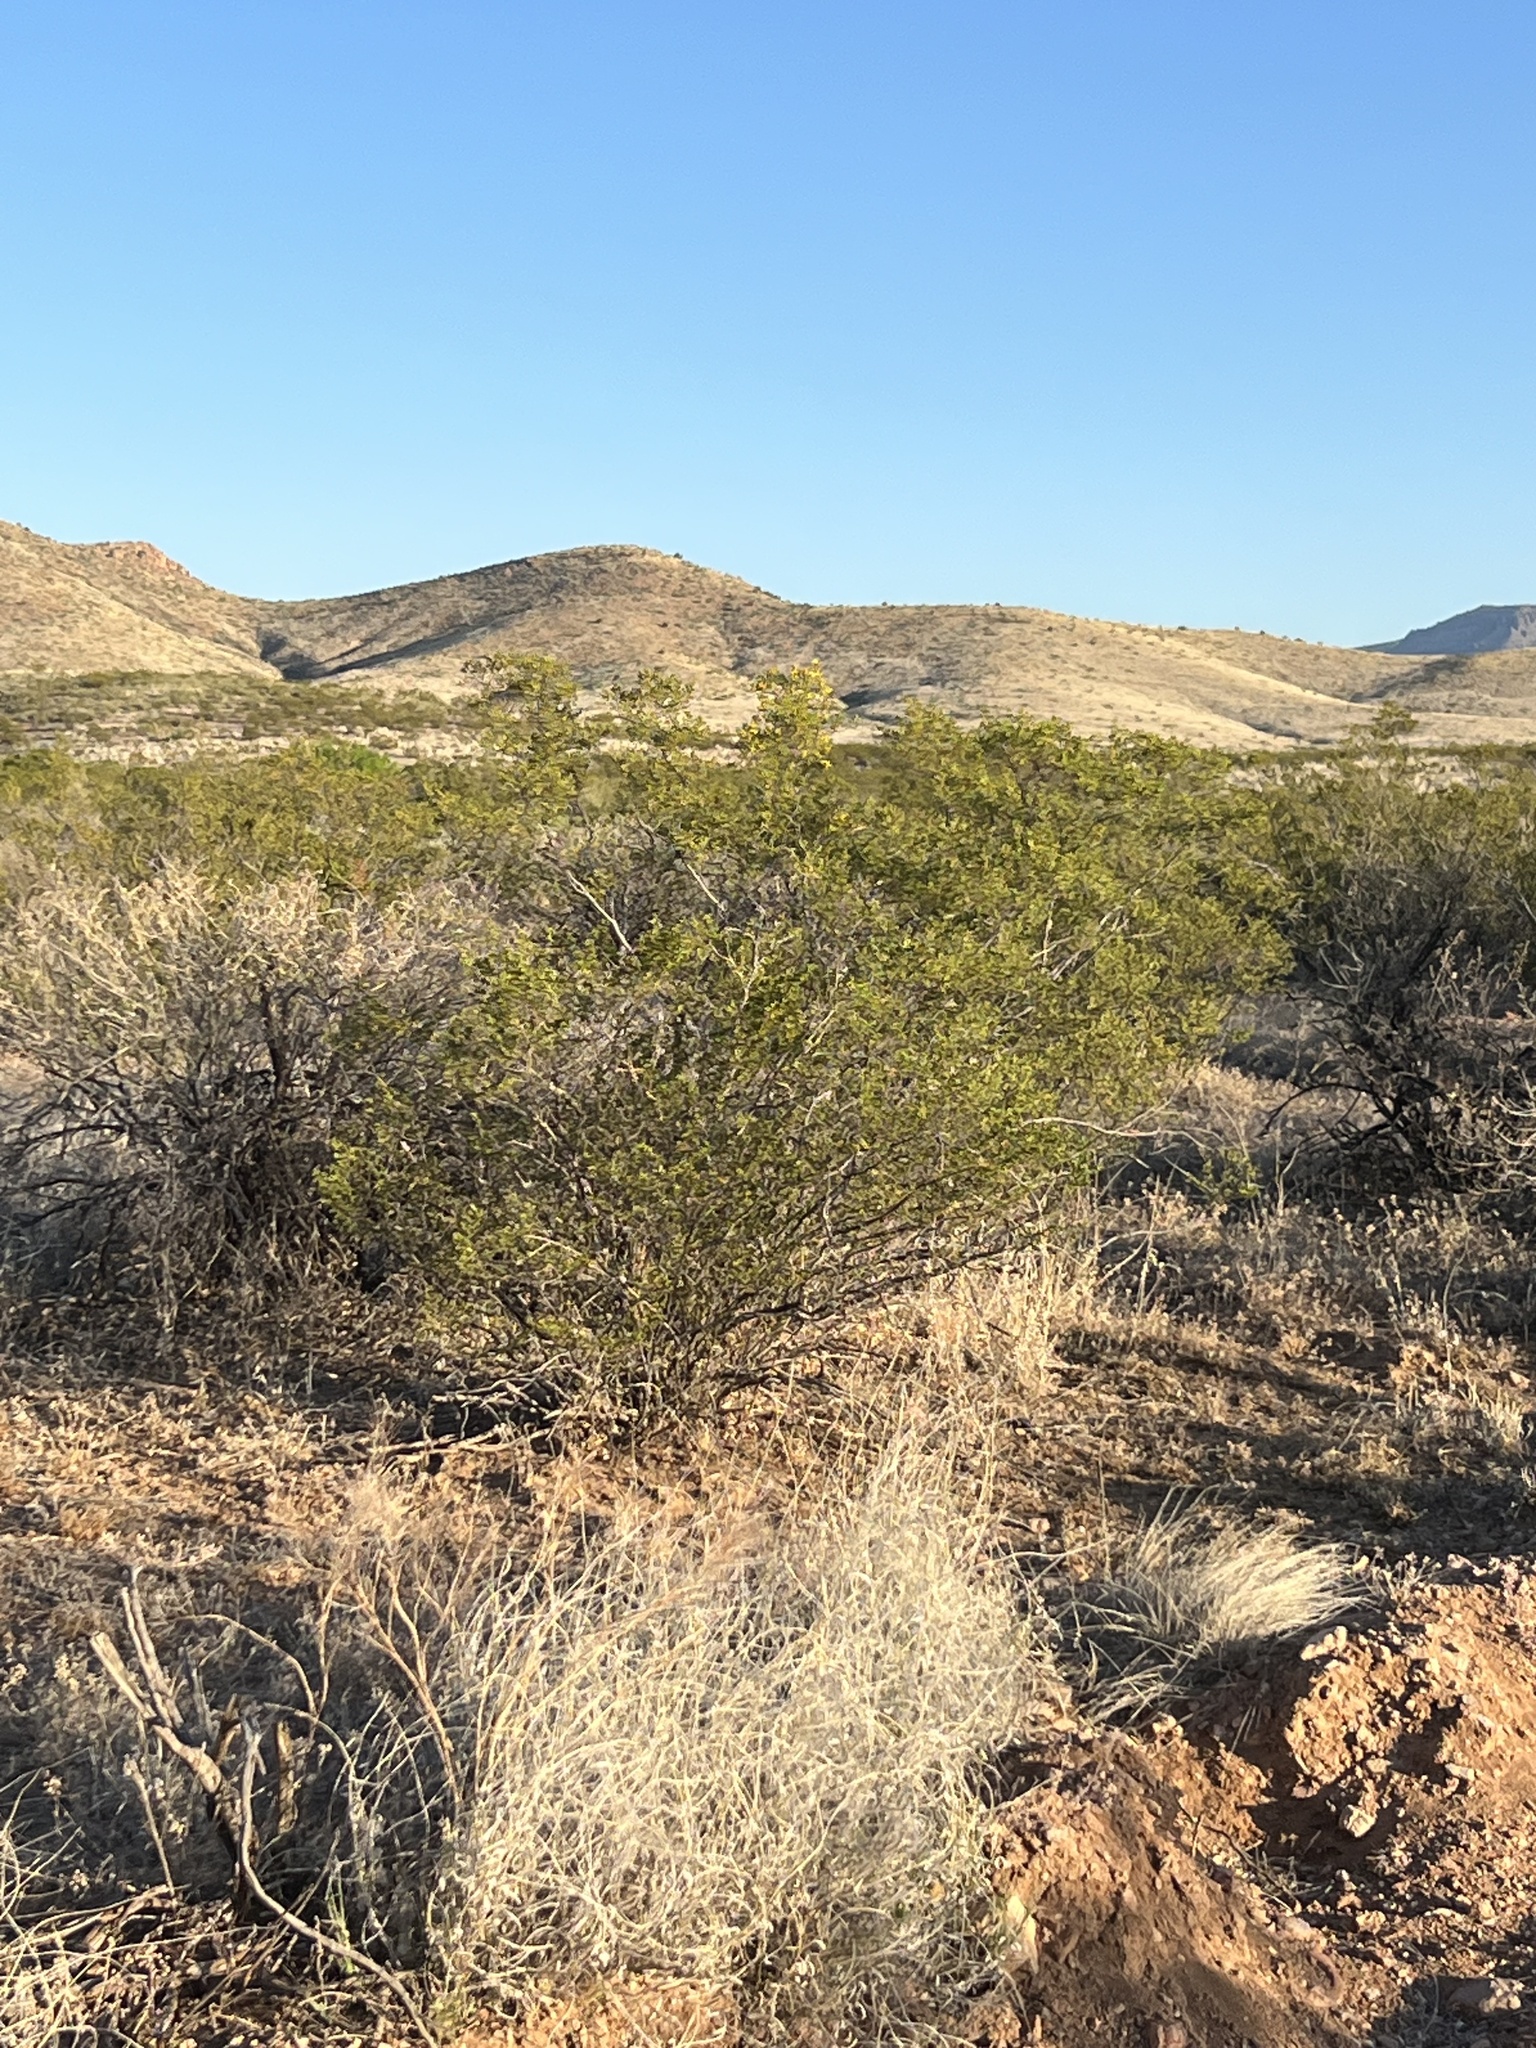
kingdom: Plantae
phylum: Tracheophyta
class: Magnoliopsida
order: Zygophyllales
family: Zygophyllaceae
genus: Larrea
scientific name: Larrea tridentata
